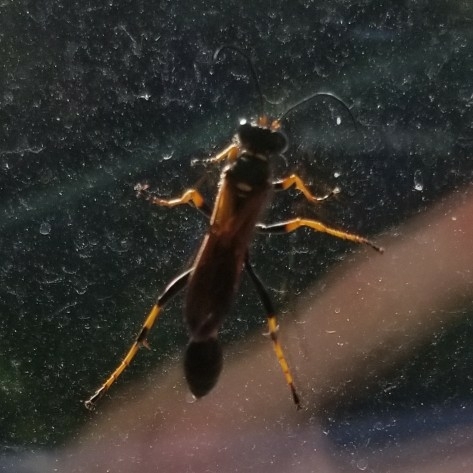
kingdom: Animalia
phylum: Arthropoda
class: Insecta
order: Hymenoptera
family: Sphecidae
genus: Sceliphron
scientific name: Sceliphron caementarium
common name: Mud dauber
